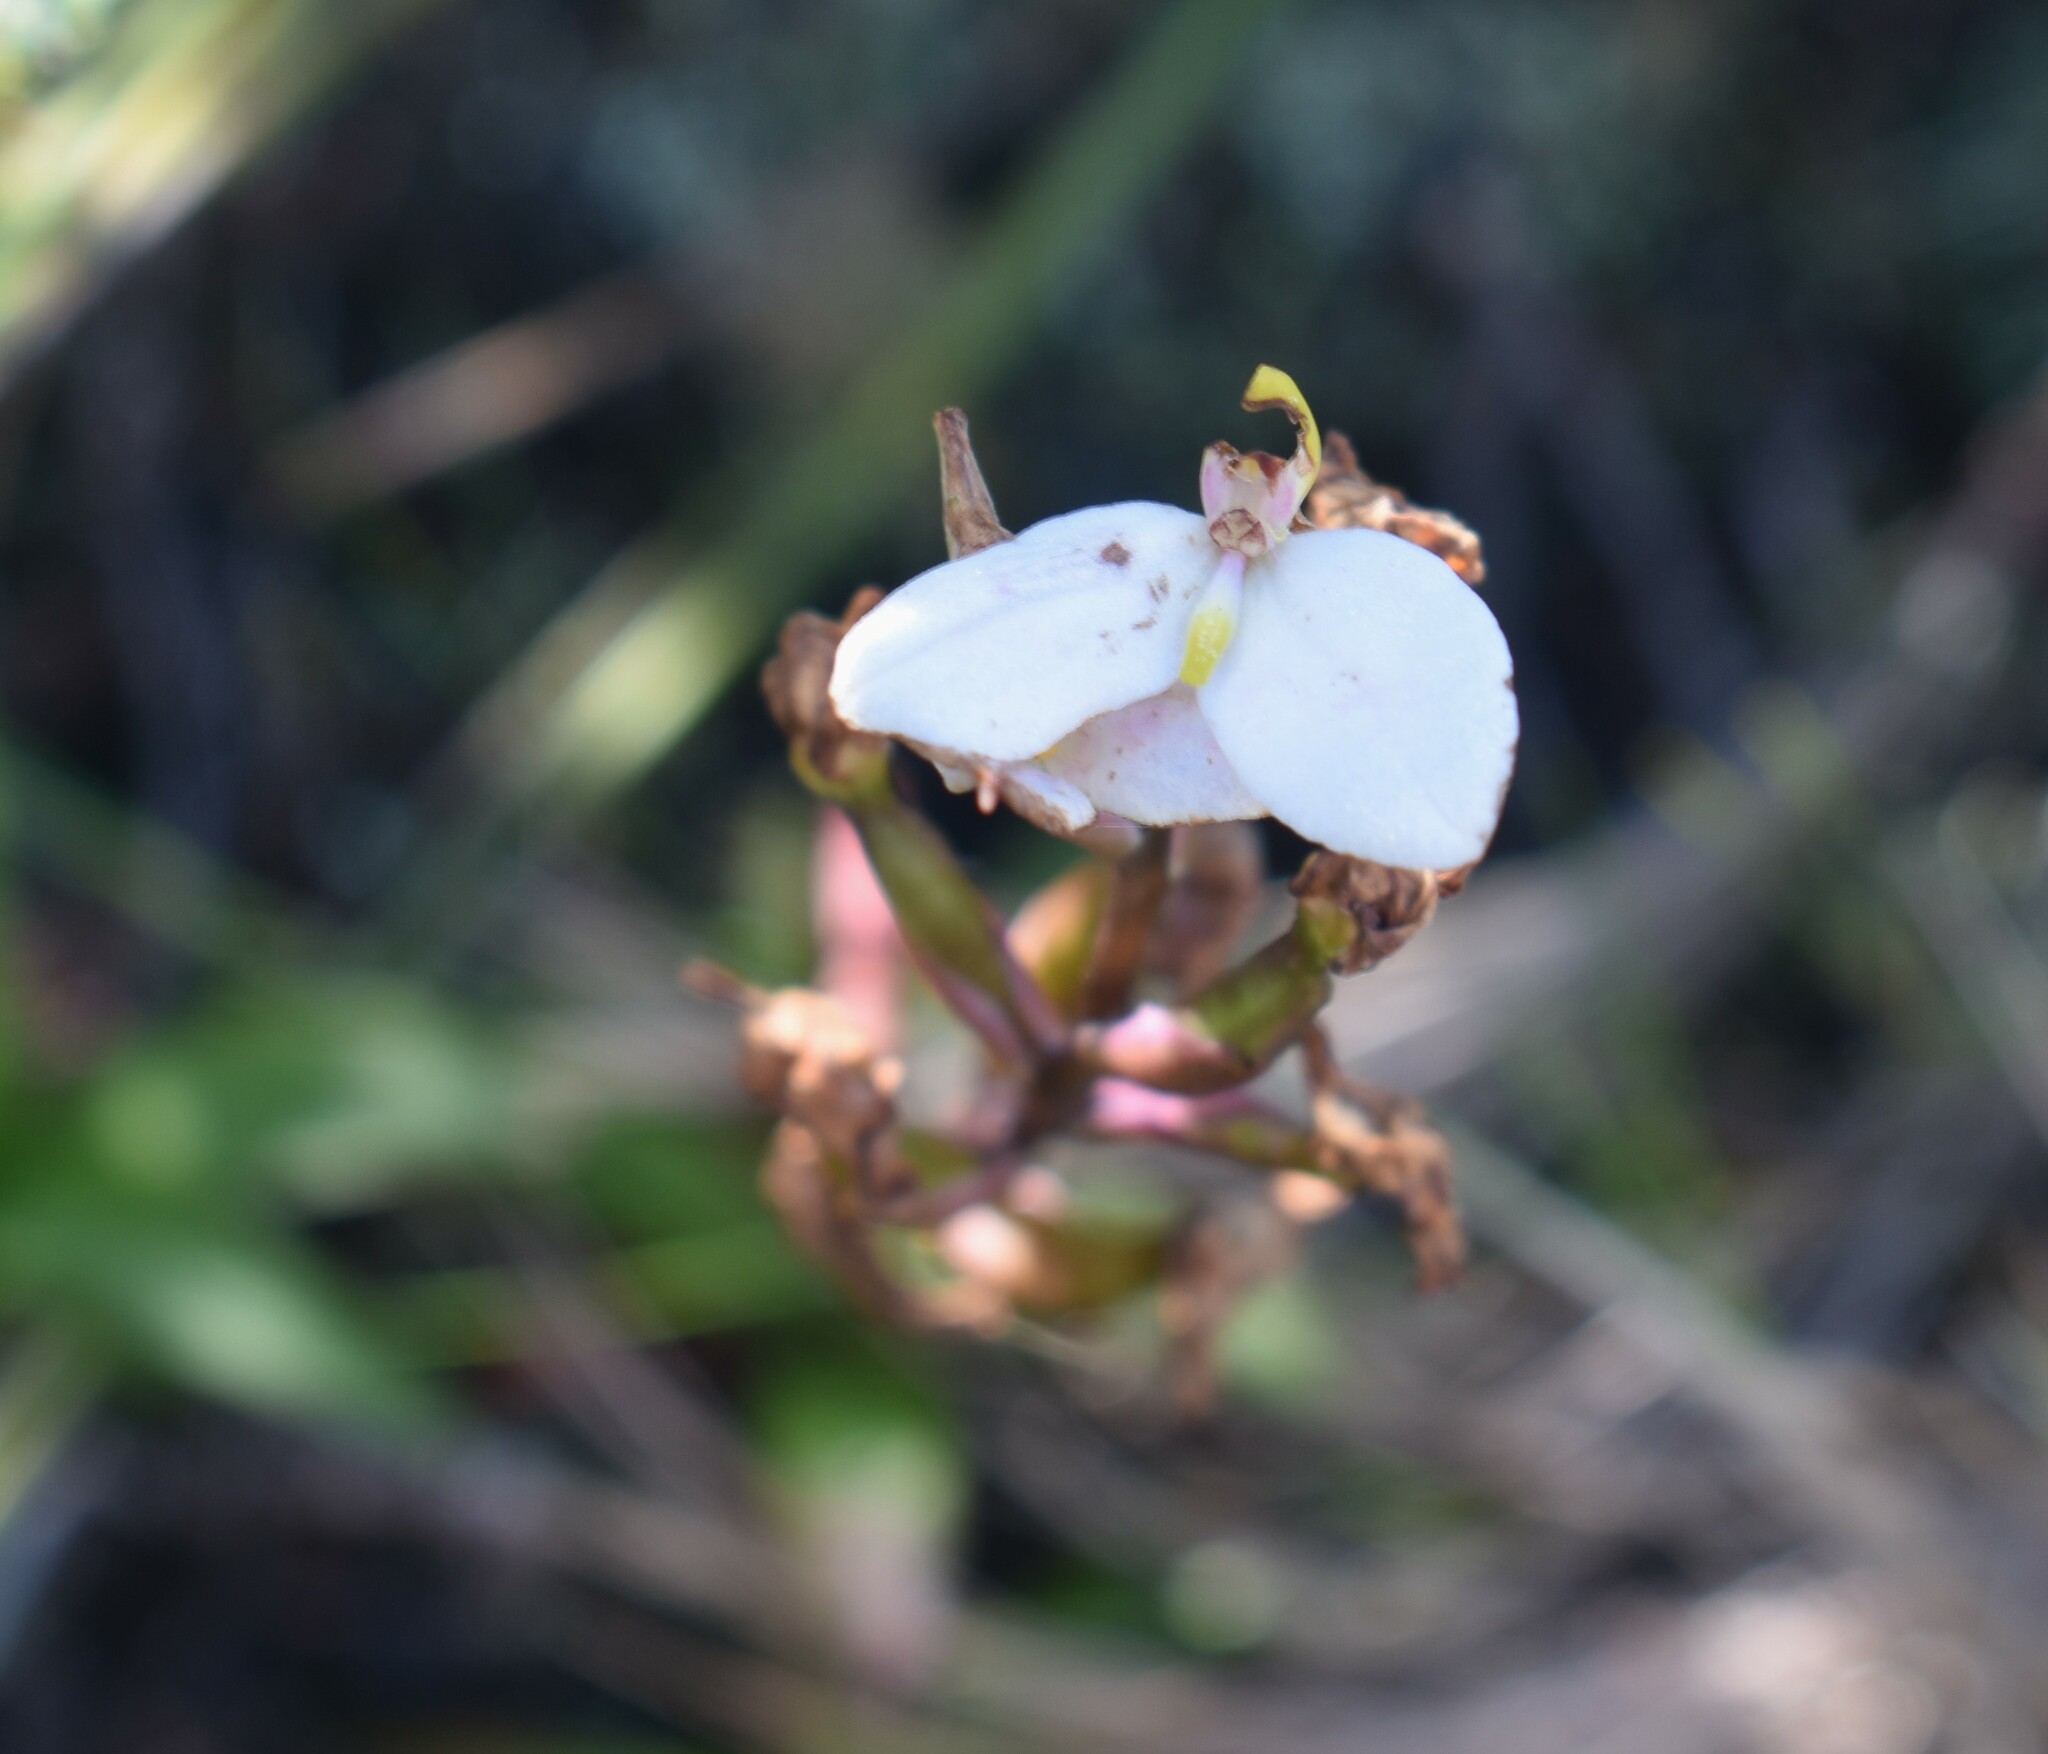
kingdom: Plantae
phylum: Tracheophyta
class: Liliopsida
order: Asparagales
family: Orchidaceae
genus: Disa
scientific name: Disa tripetaloides
